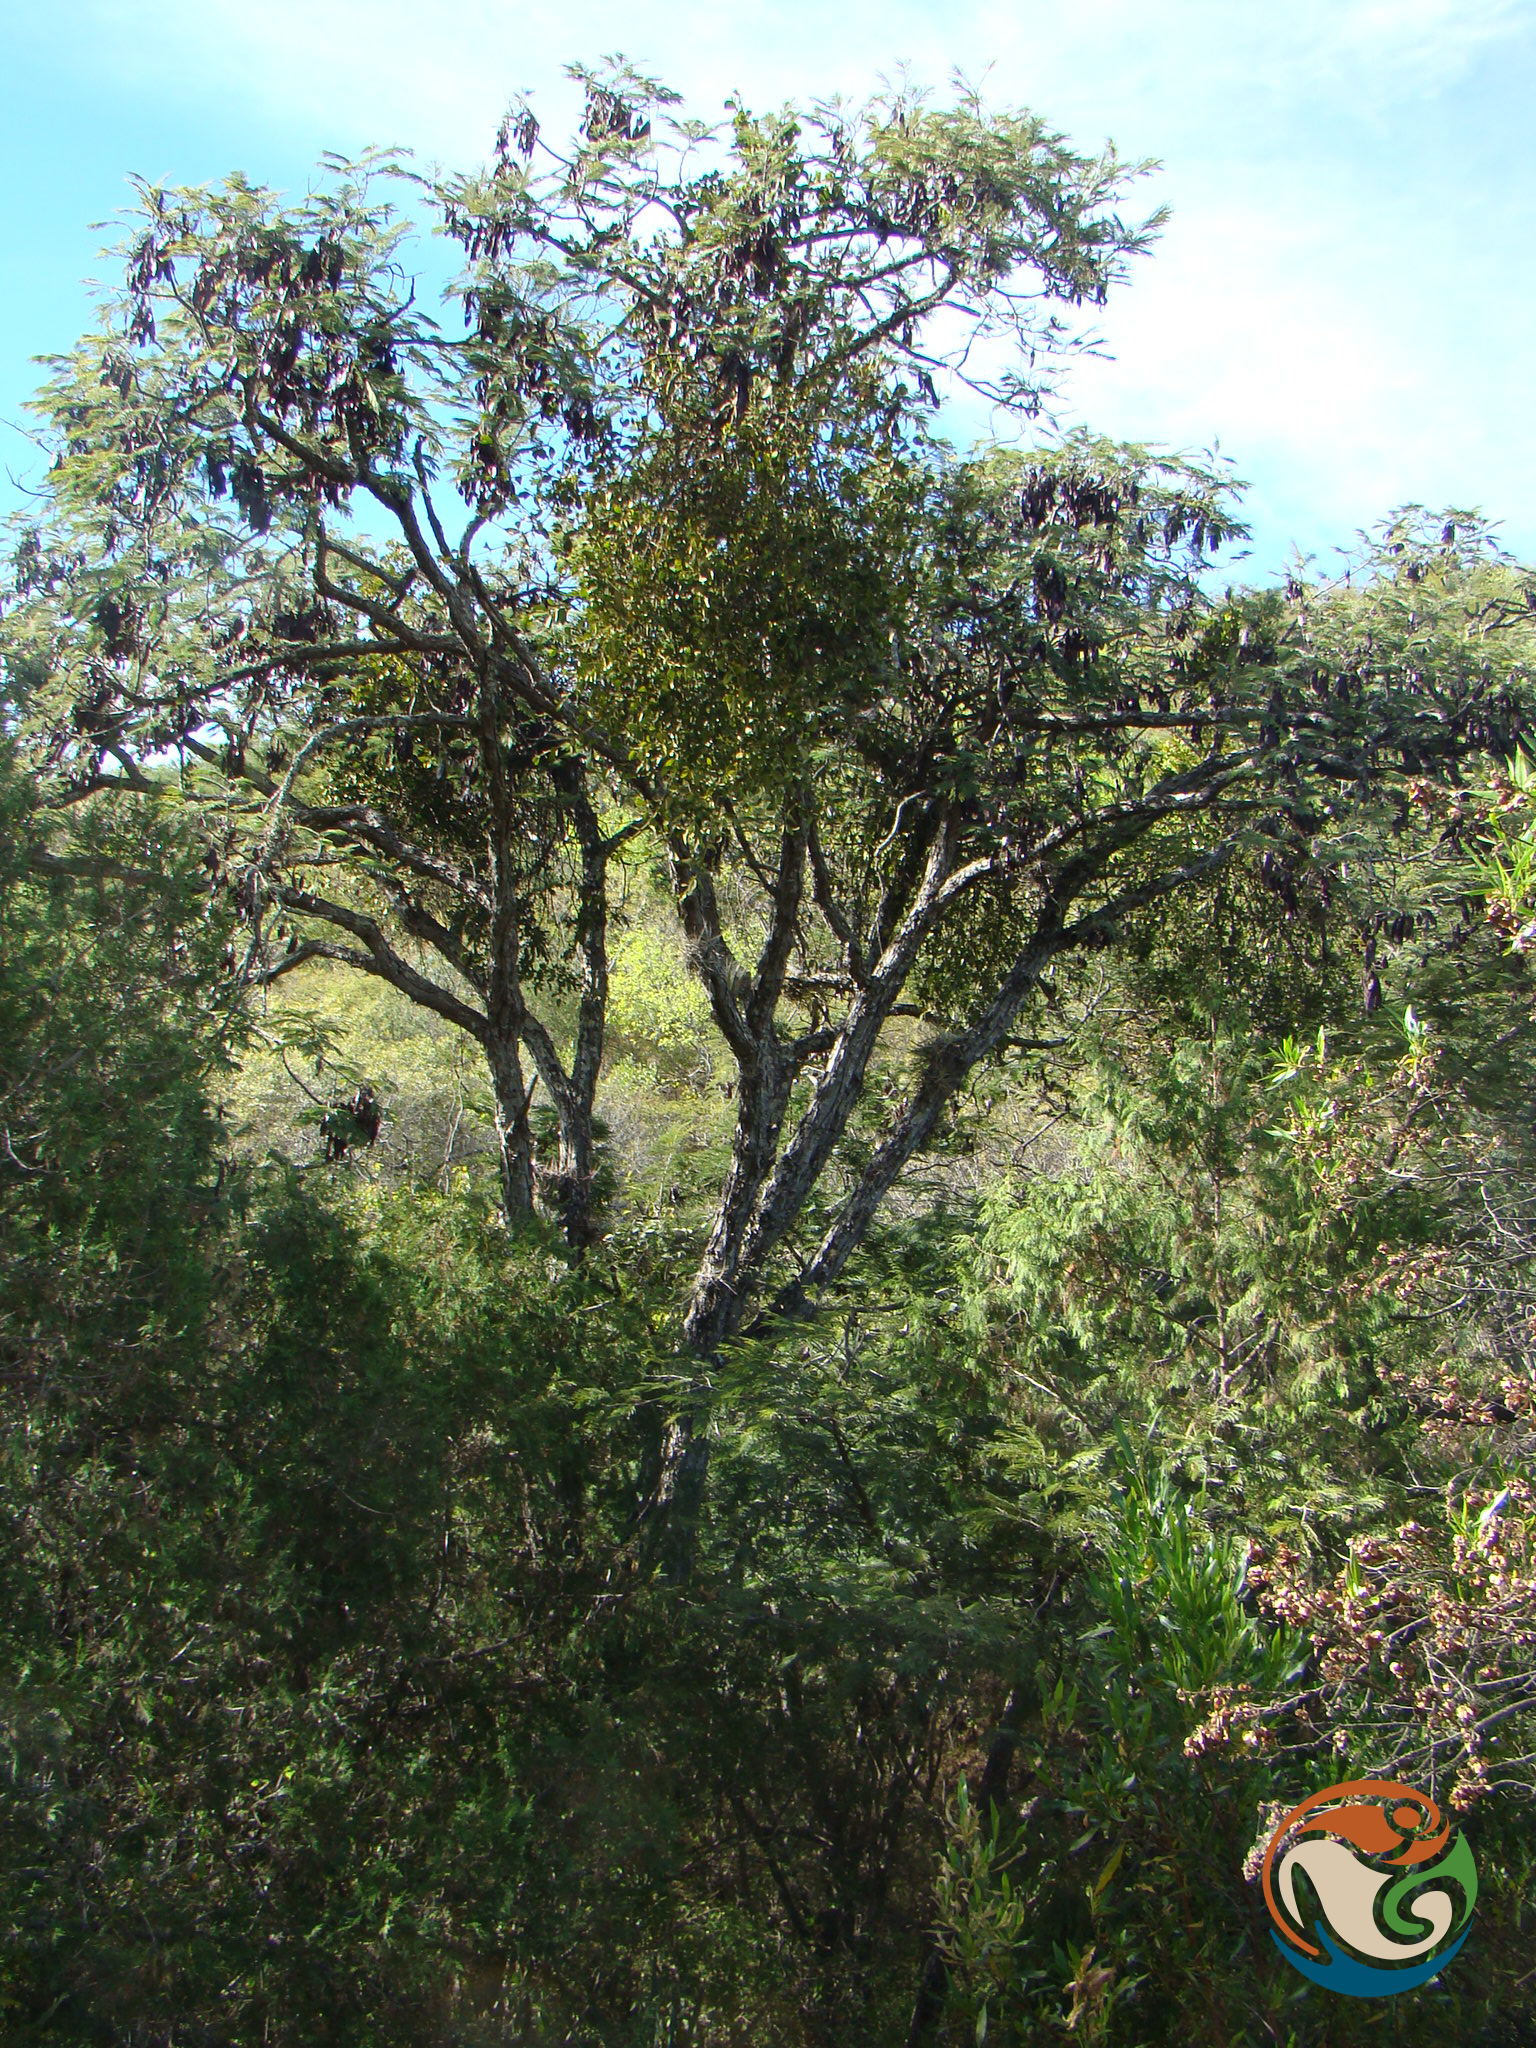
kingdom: Plantae
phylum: Tracheophyta
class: Magnoliopsida
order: Fabales
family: Fabaceae
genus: Lysiloma
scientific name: Lysiloma acapulcense
